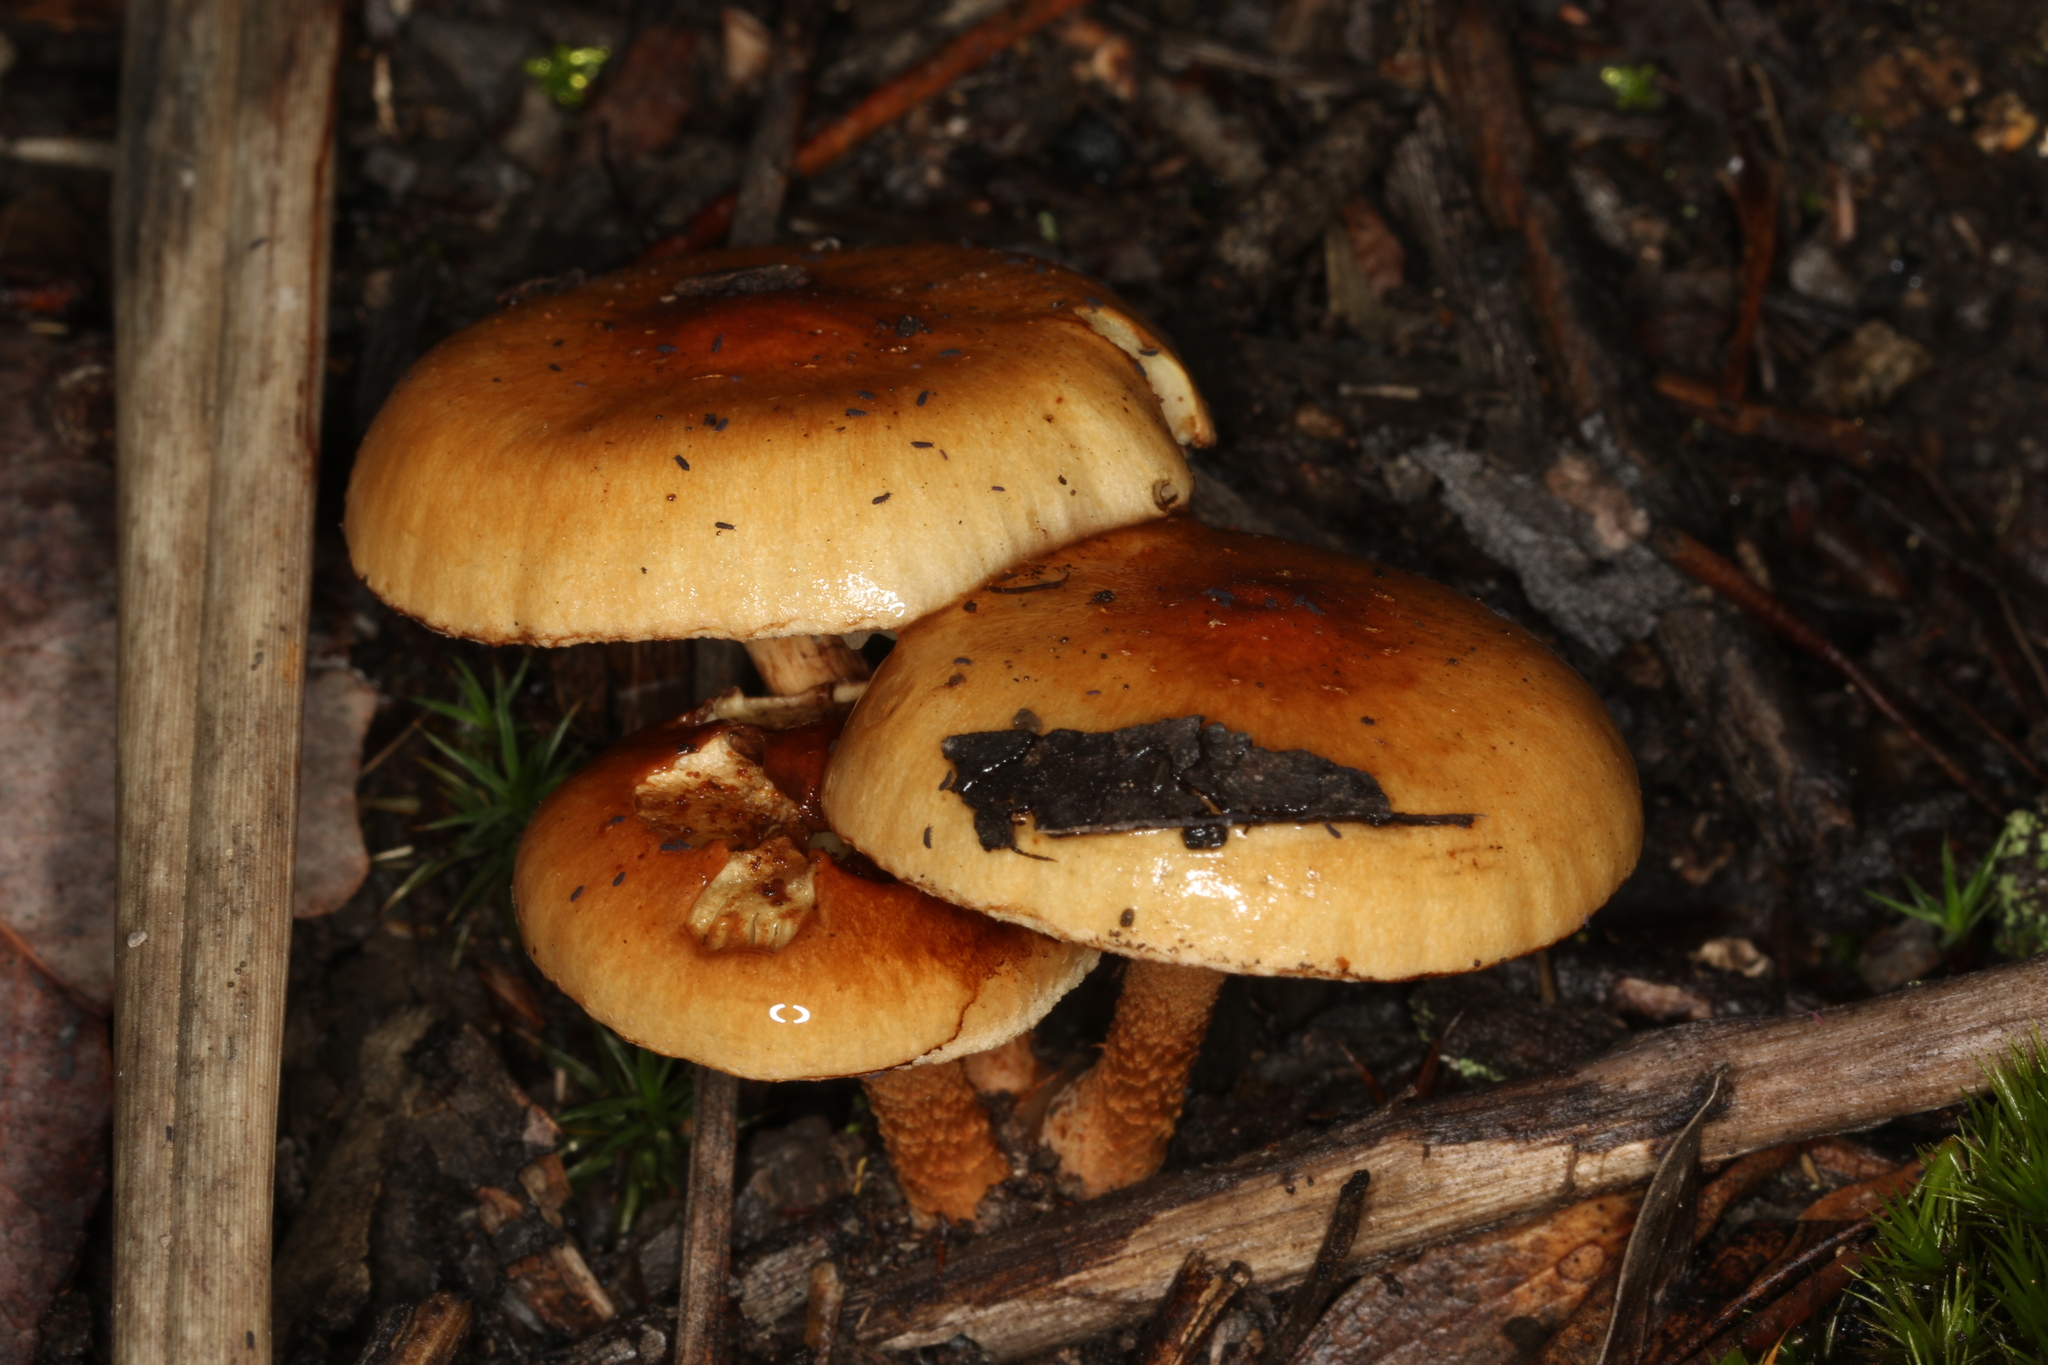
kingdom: Fungi
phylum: Basidiomycota
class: Agaricomycetes
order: Agaricales
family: Strophariaceae
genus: Pholiota
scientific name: Pholiota communis
